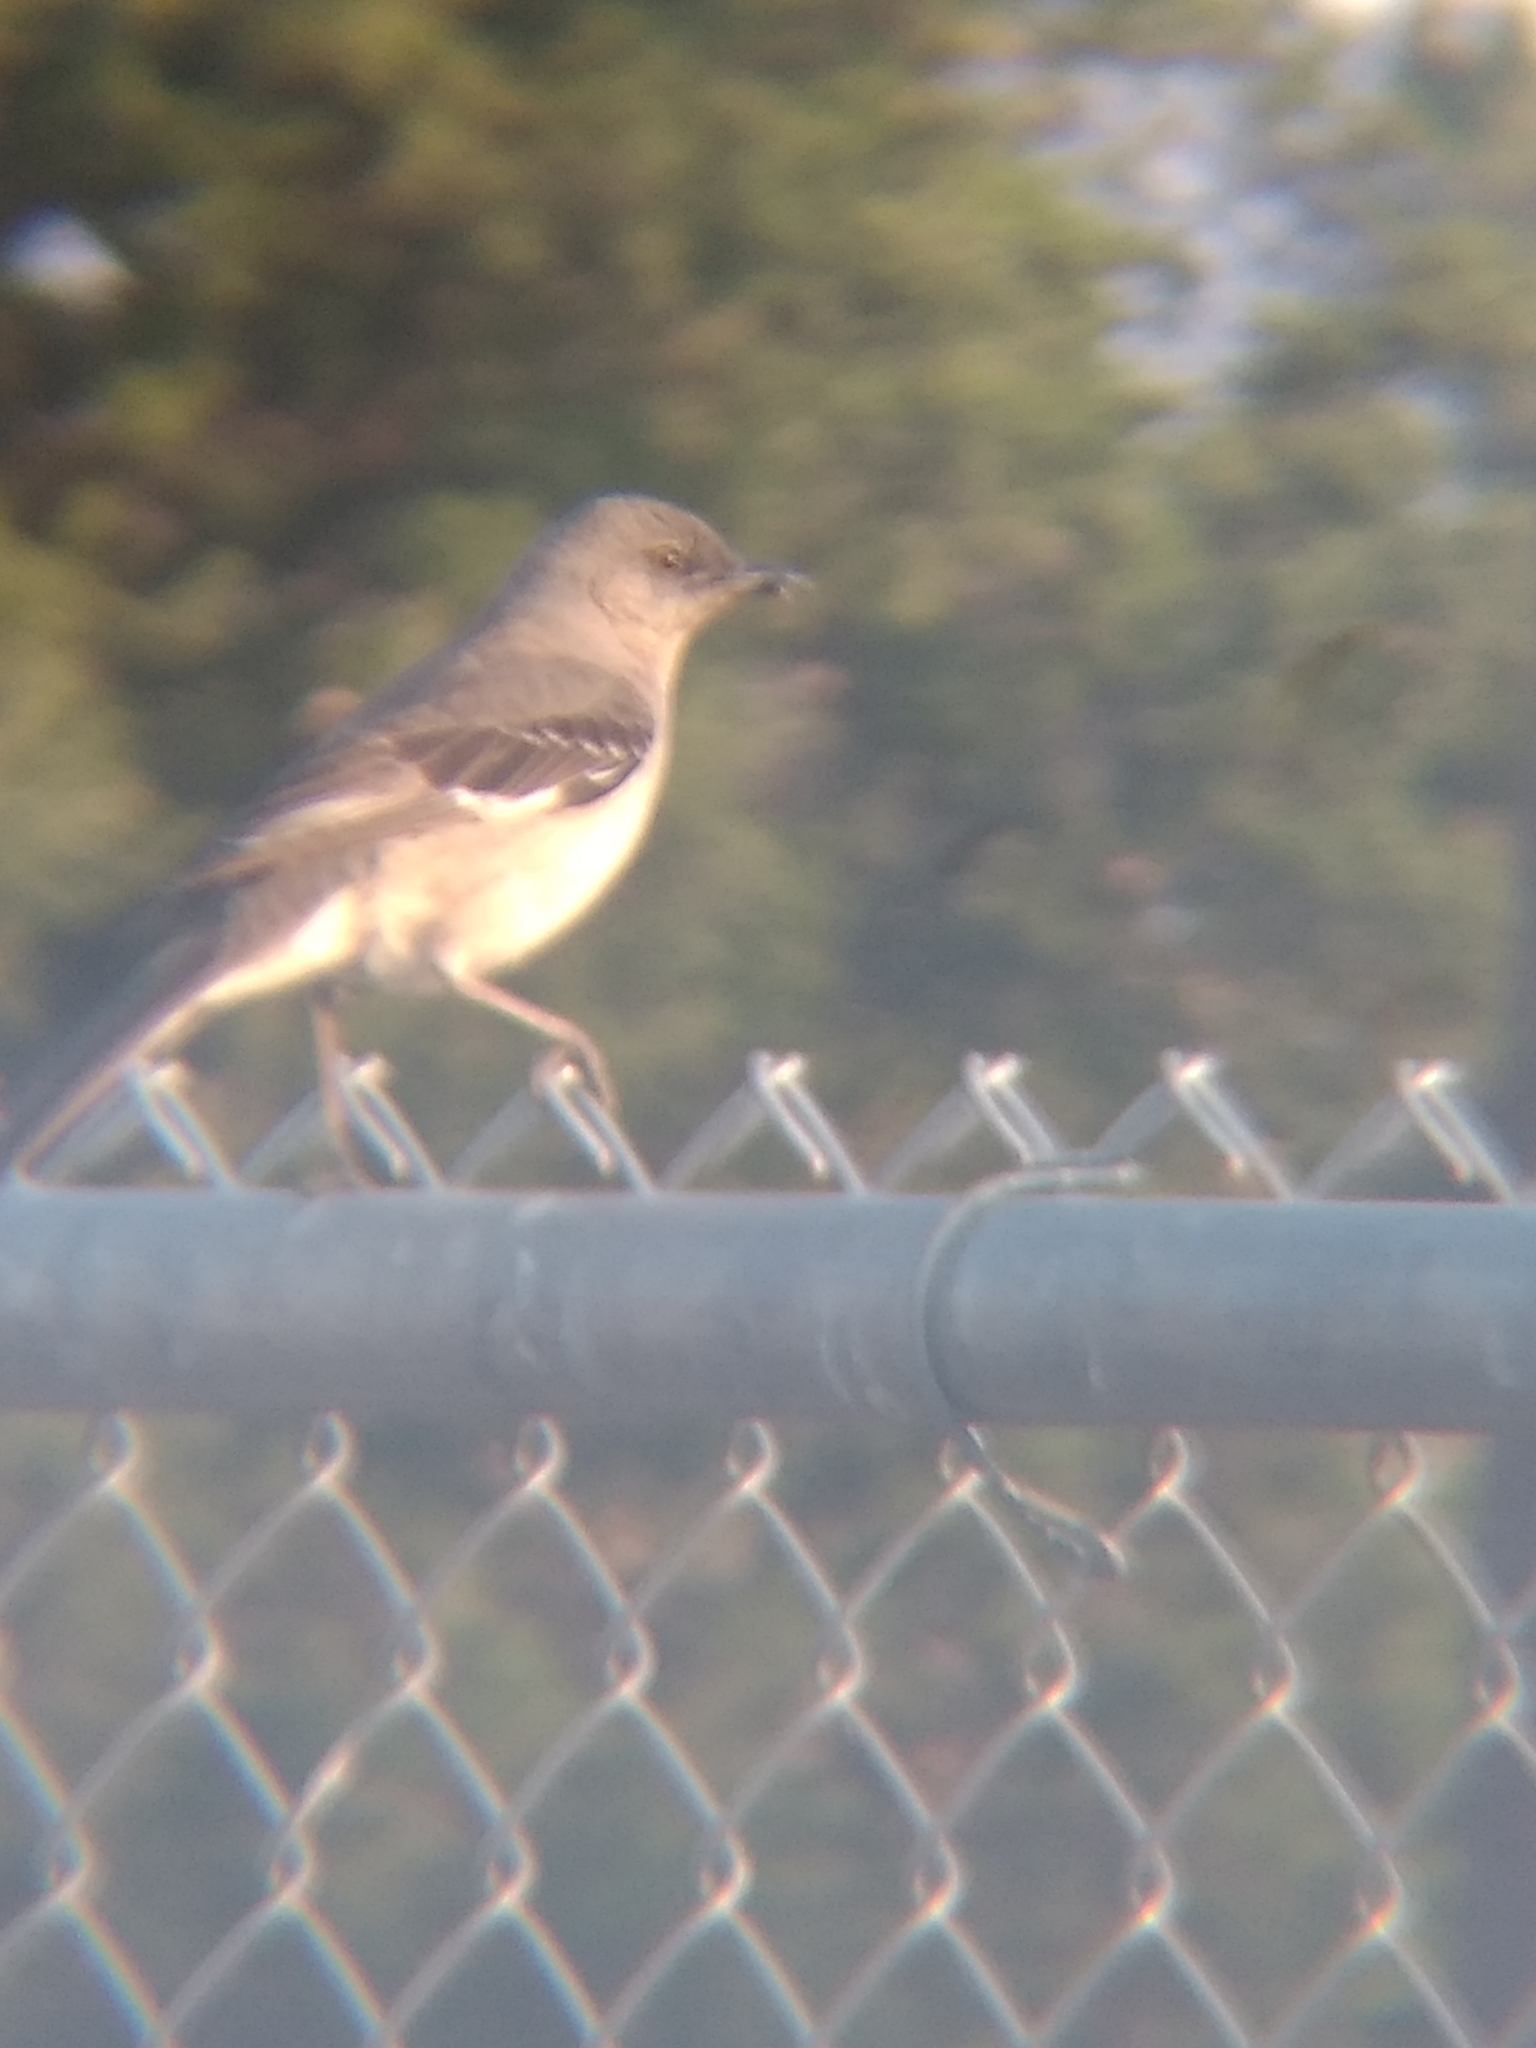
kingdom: Animalia
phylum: Chordata
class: Aves
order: Passeriformes
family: Mimidae
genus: Mimus
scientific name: Mimus polyglottos
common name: Northern mockingbird
